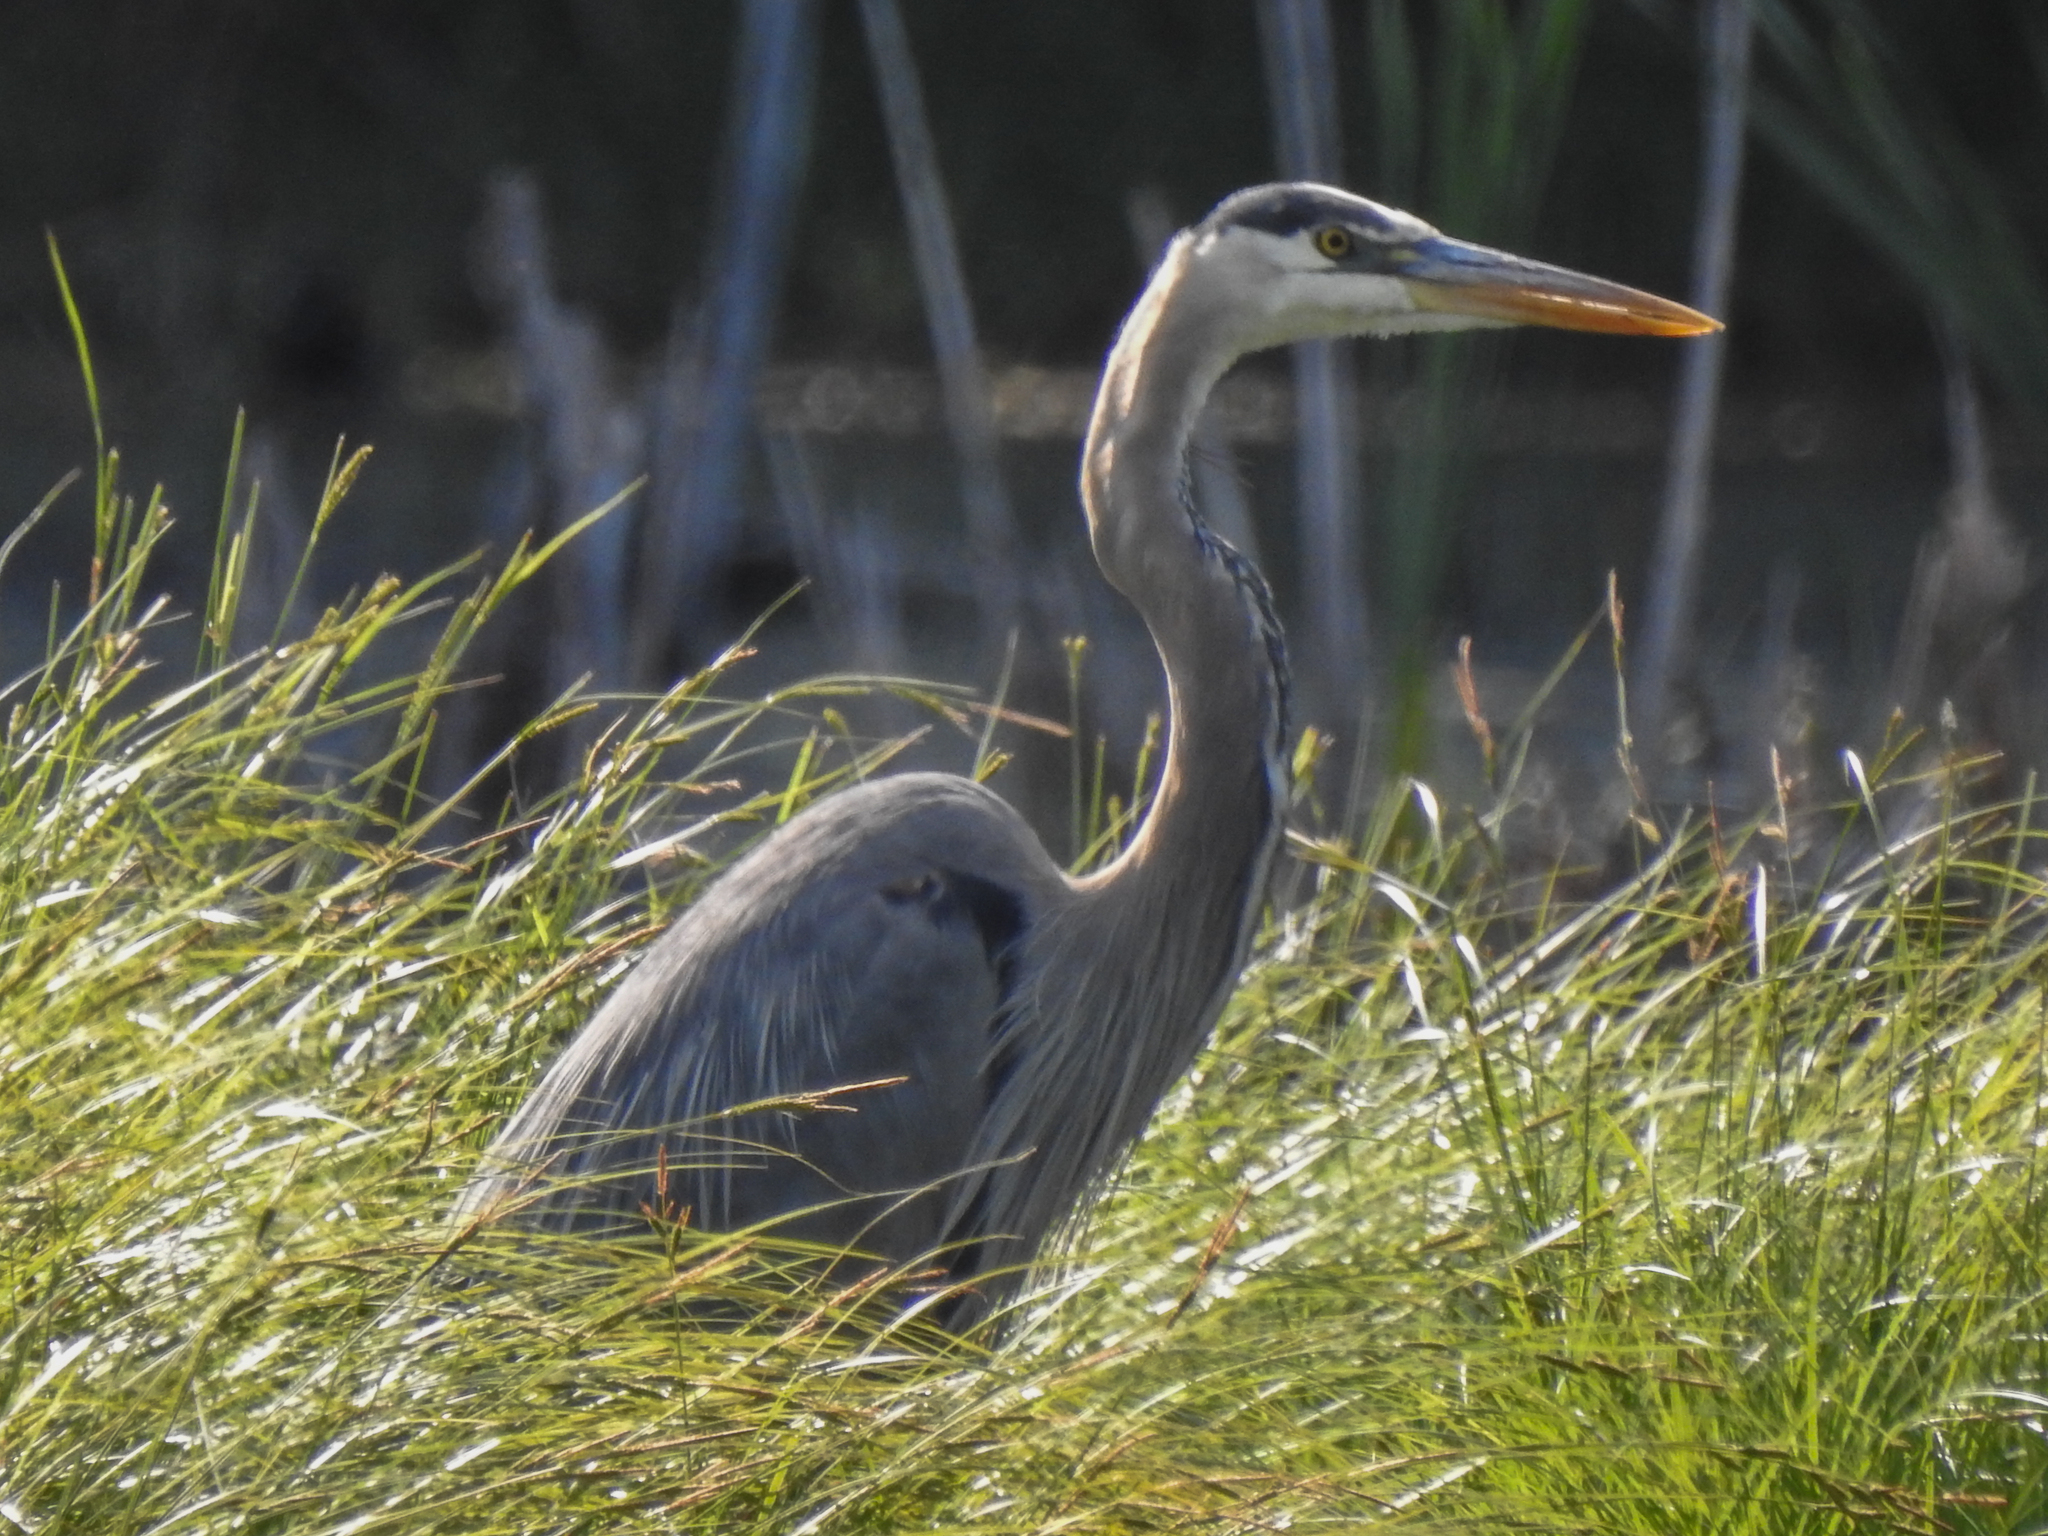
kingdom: Animalia
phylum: Chordata
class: Aves
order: Pelecaniformes
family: Ardeidae
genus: Ardea
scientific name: Ardea herodias
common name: Great blue heron
